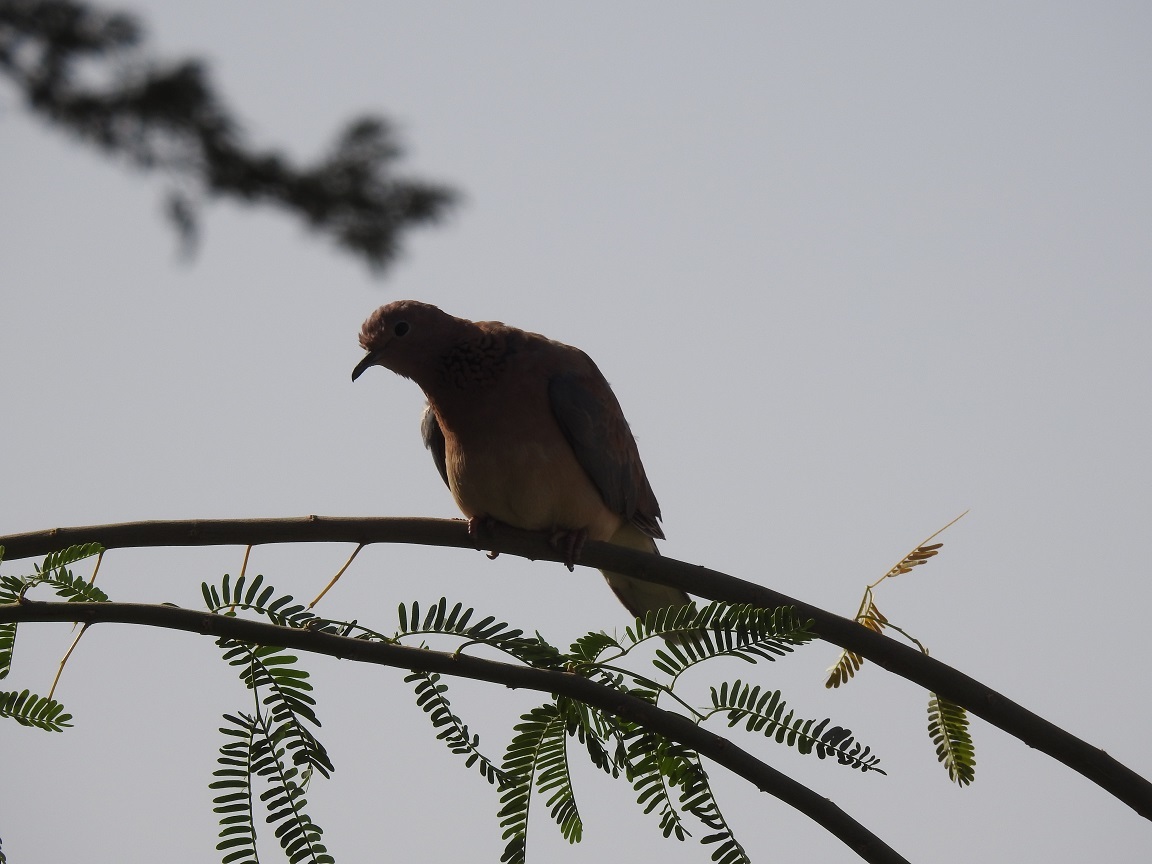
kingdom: Animalia
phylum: Chordata
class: Aves
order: Columbiformes
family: Columbidae
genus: Spilopelia
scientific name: Spilopelia senegalensis
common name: Laughing dove
